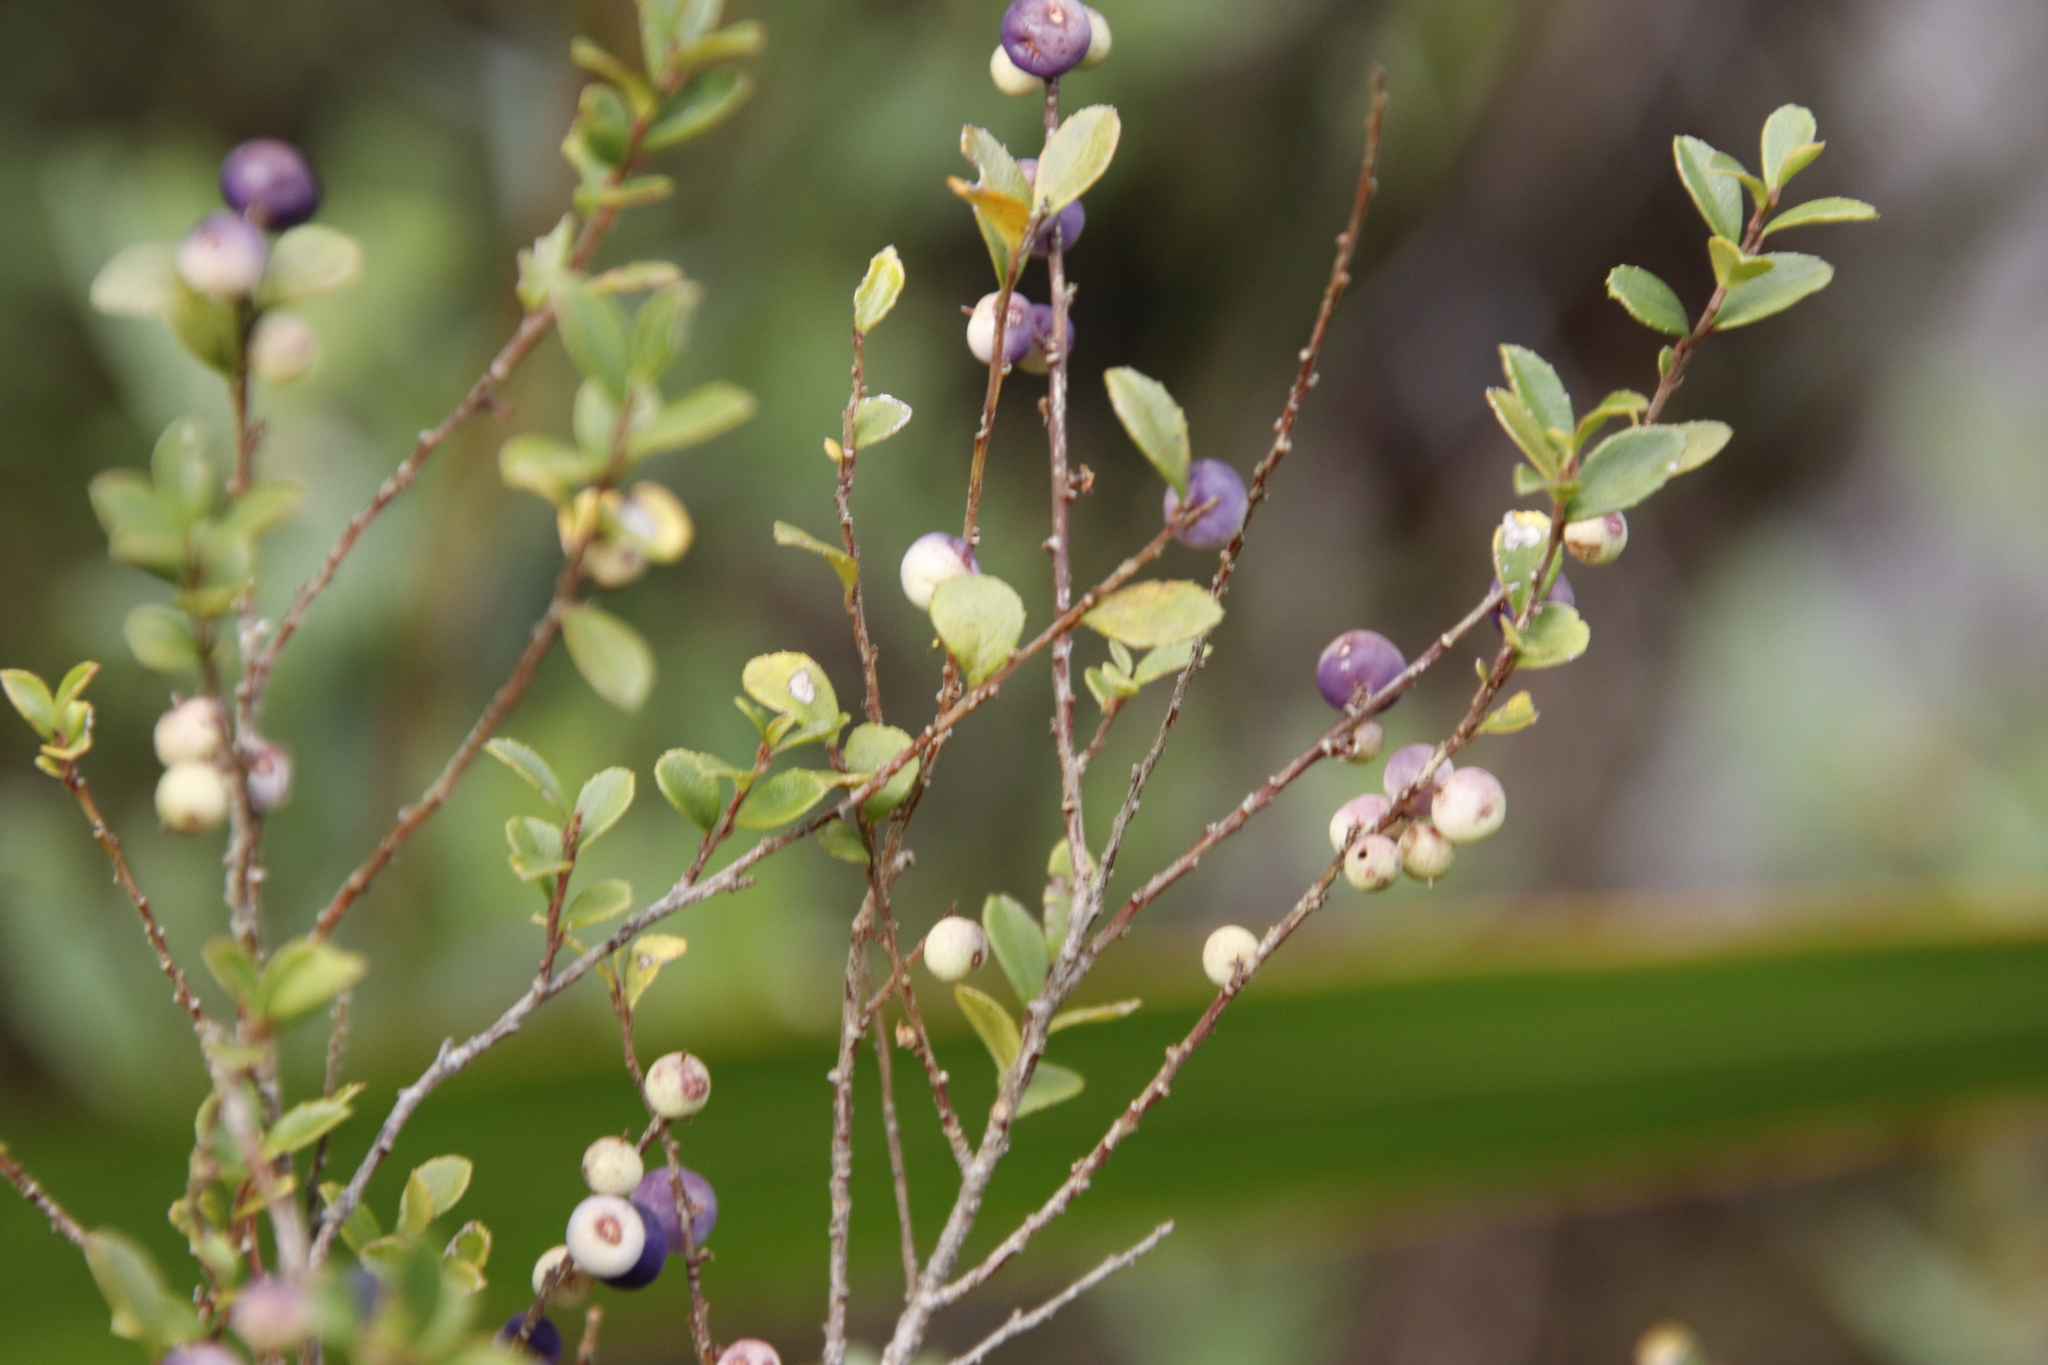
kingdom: Plantae
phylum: Tracheophyta
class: Magnoliopsida
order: Ericales
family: Primulaceae
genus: Myrsine
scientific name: Myrsine africana
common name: African-boxwood
